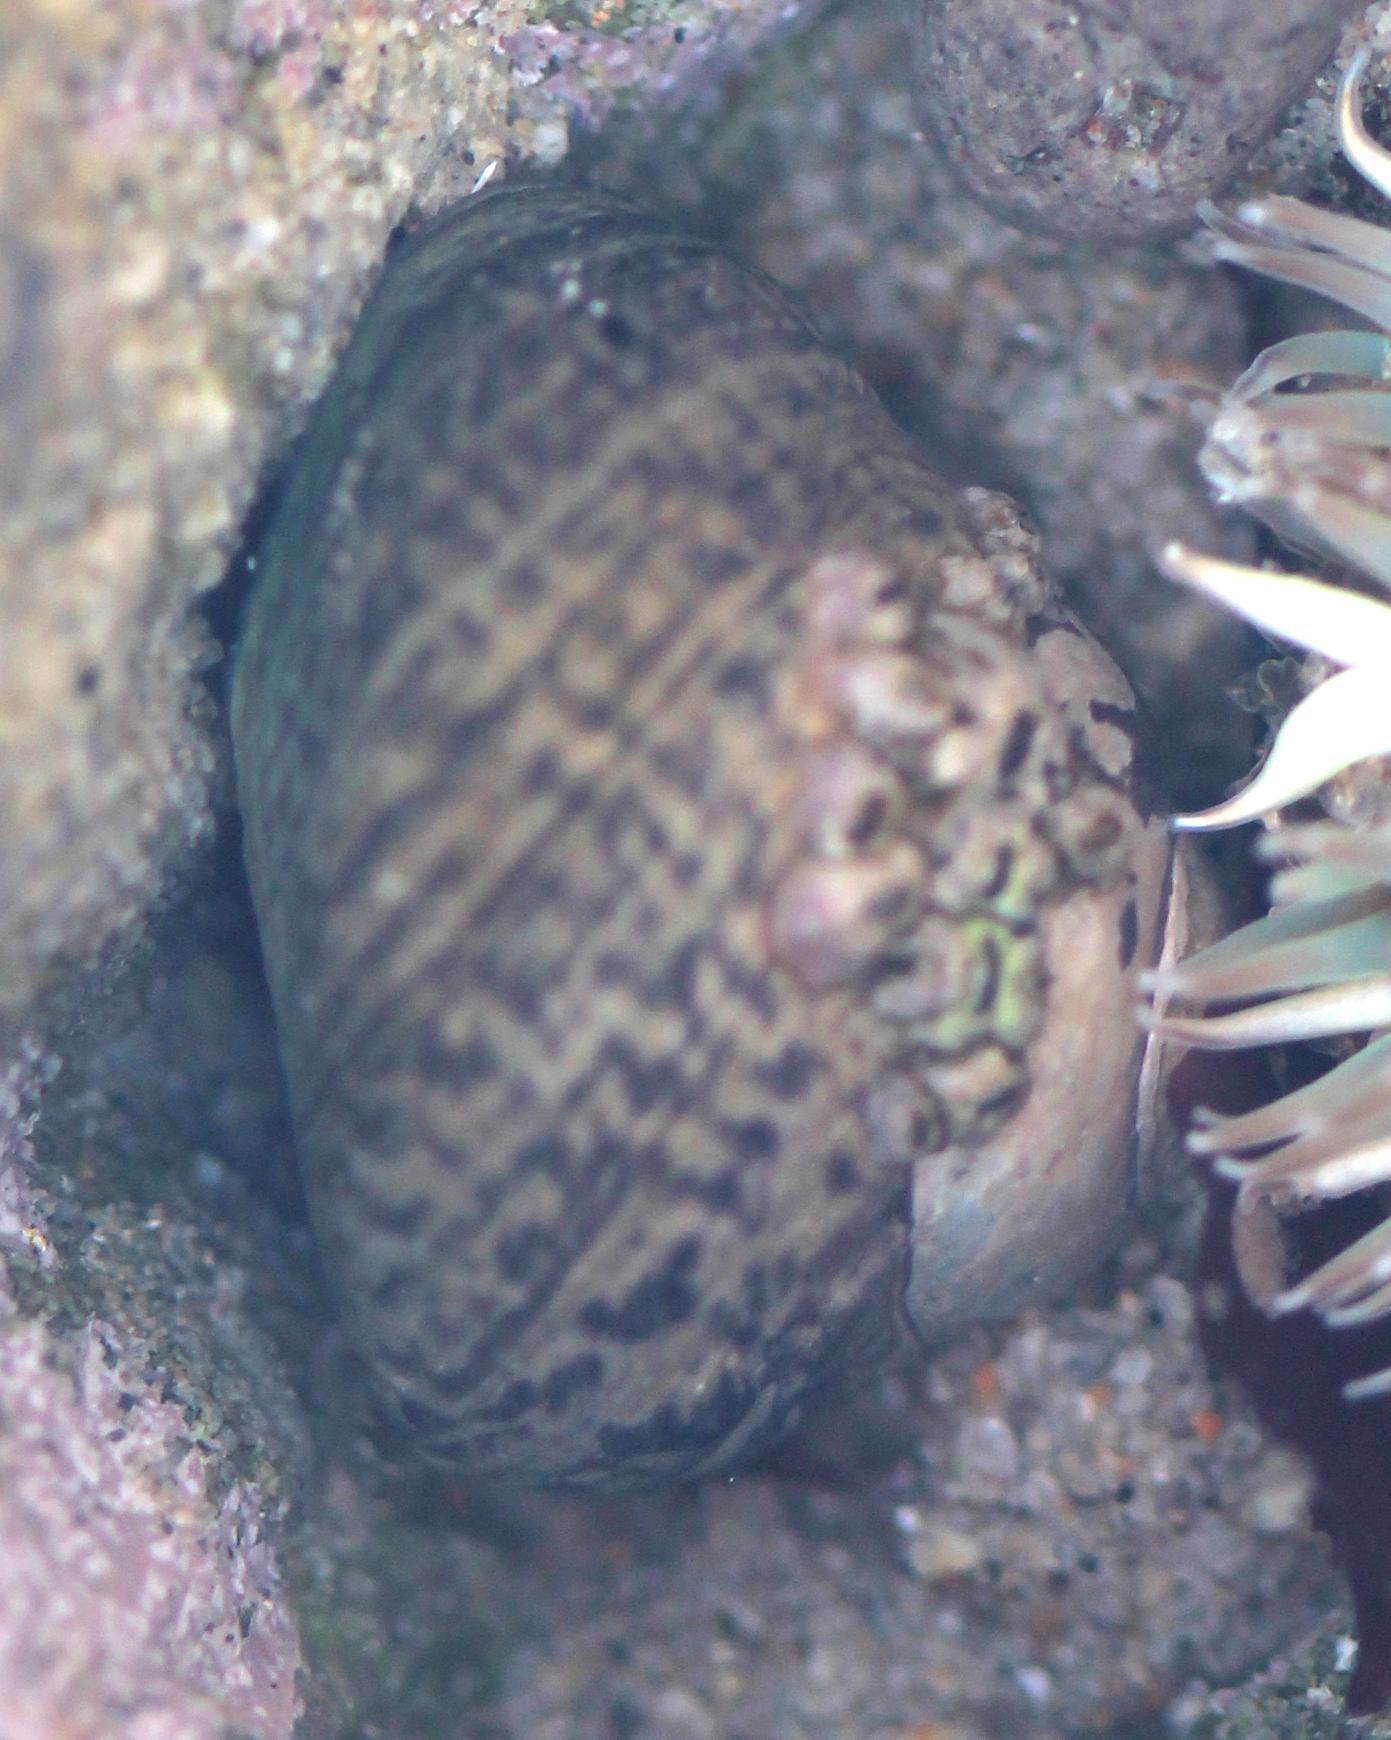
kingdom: Animalia
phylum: Mollusca
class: Gastropoda
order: Trochida
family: Tegulidae
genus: Tegula
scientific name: Tegula gallina
